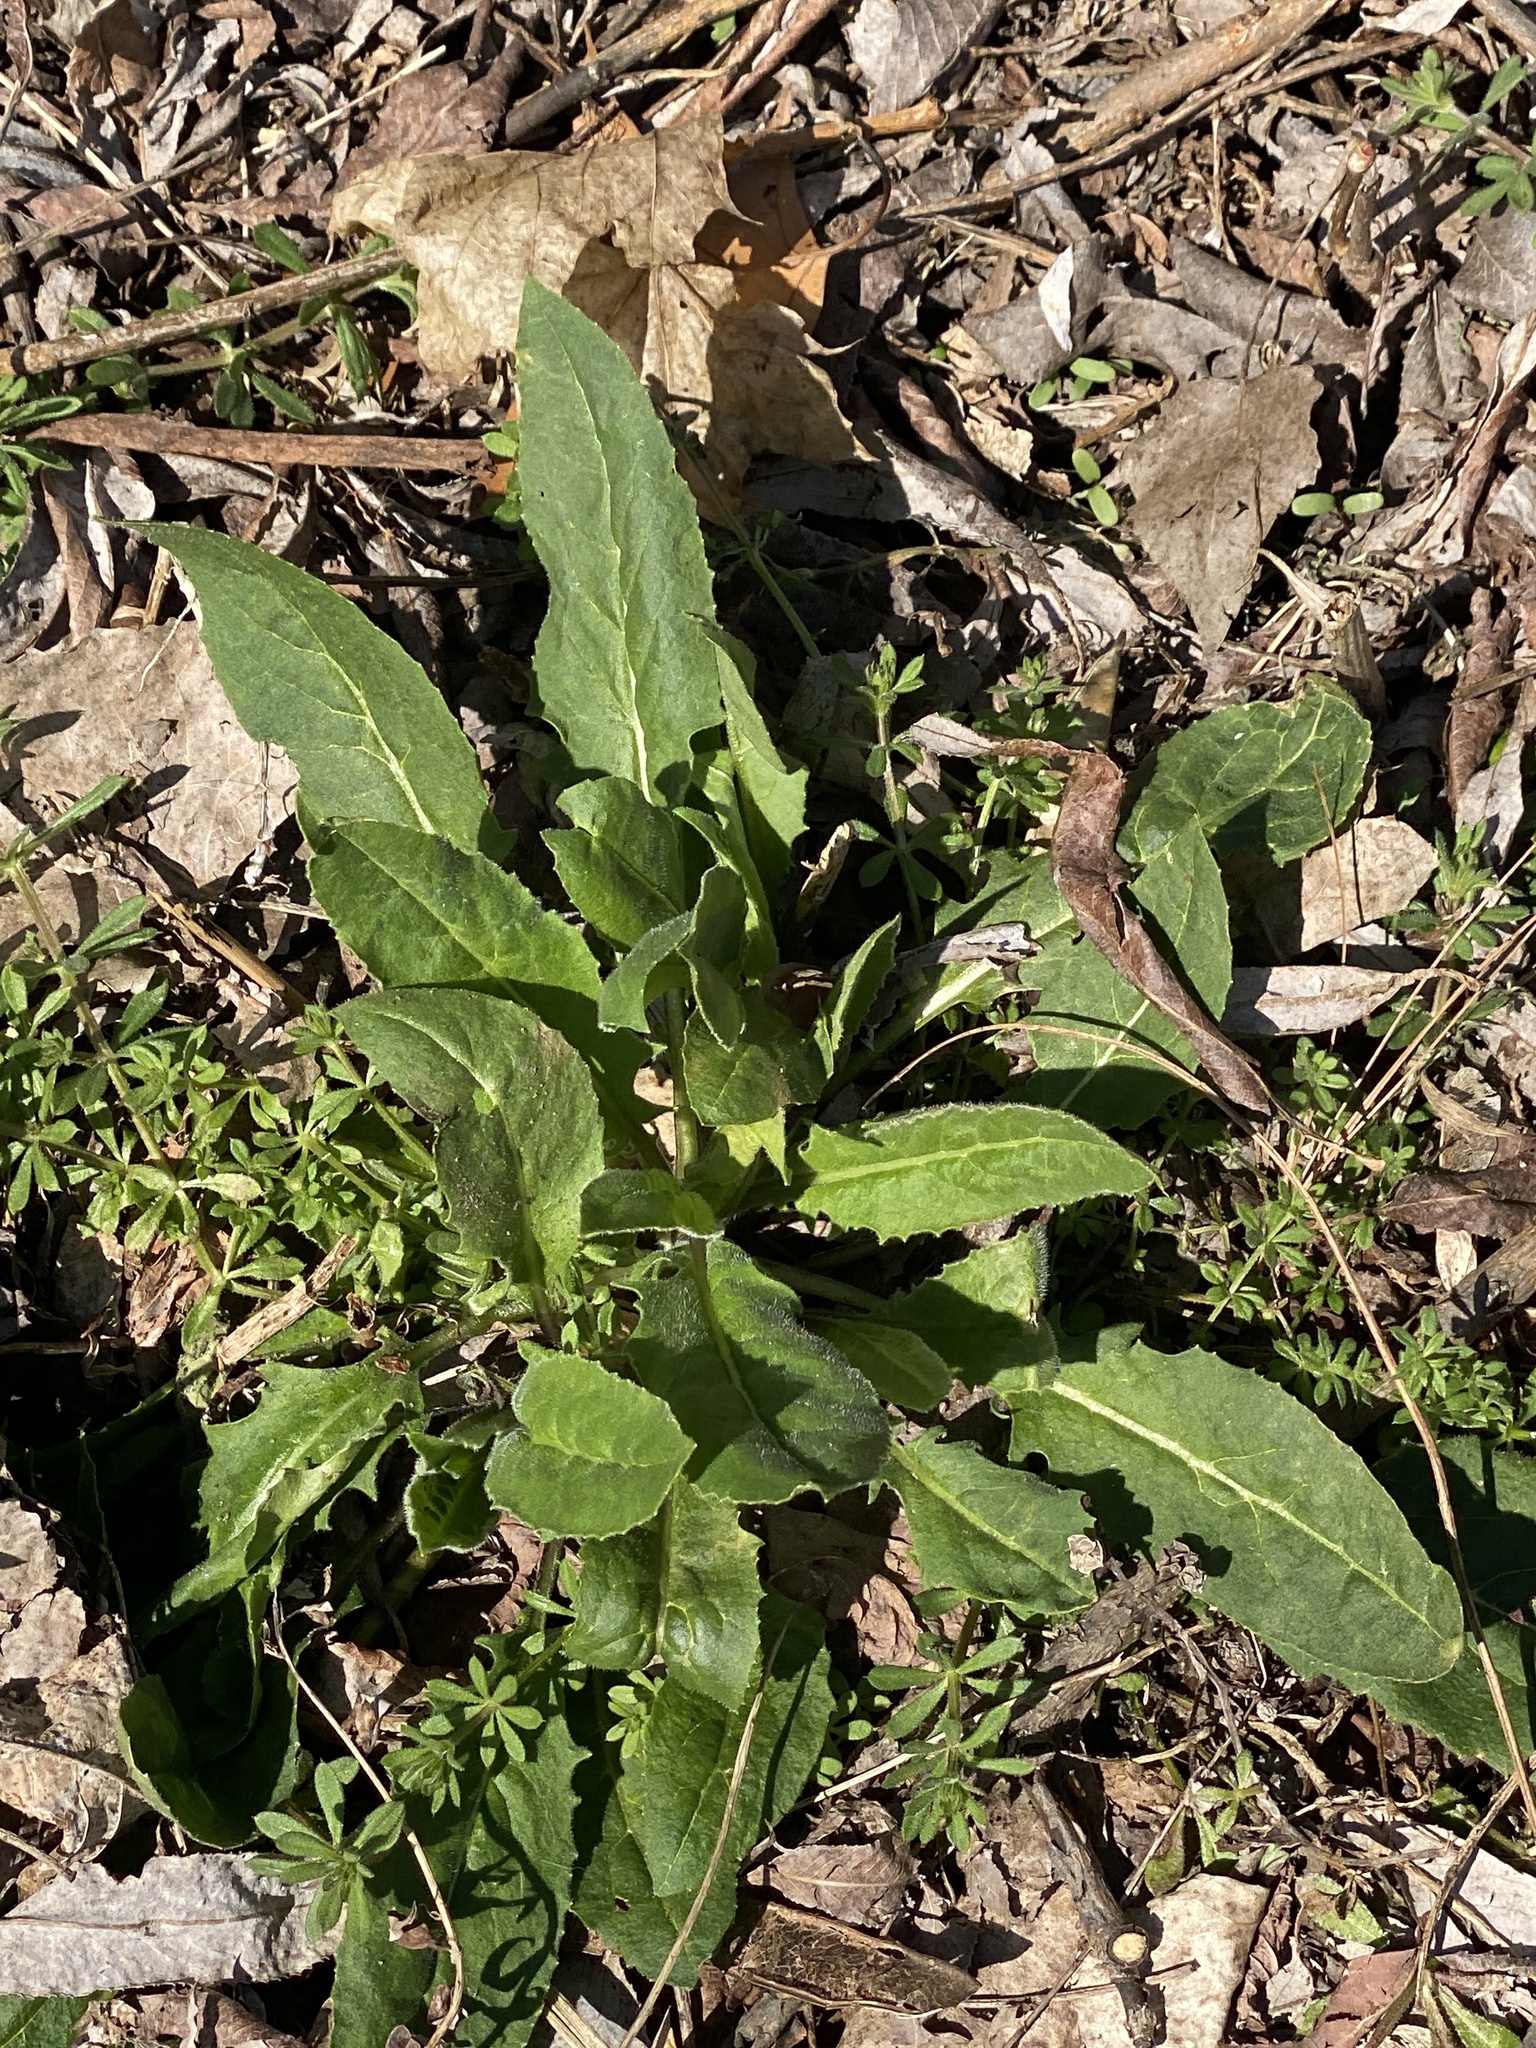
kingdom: Plantae
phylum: Tracheophyta
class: Magnoliopsida
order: Brassicales
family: Brassicaceae
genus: Hesperis
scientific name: Hesperis matronalis
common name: Dame's-violet
